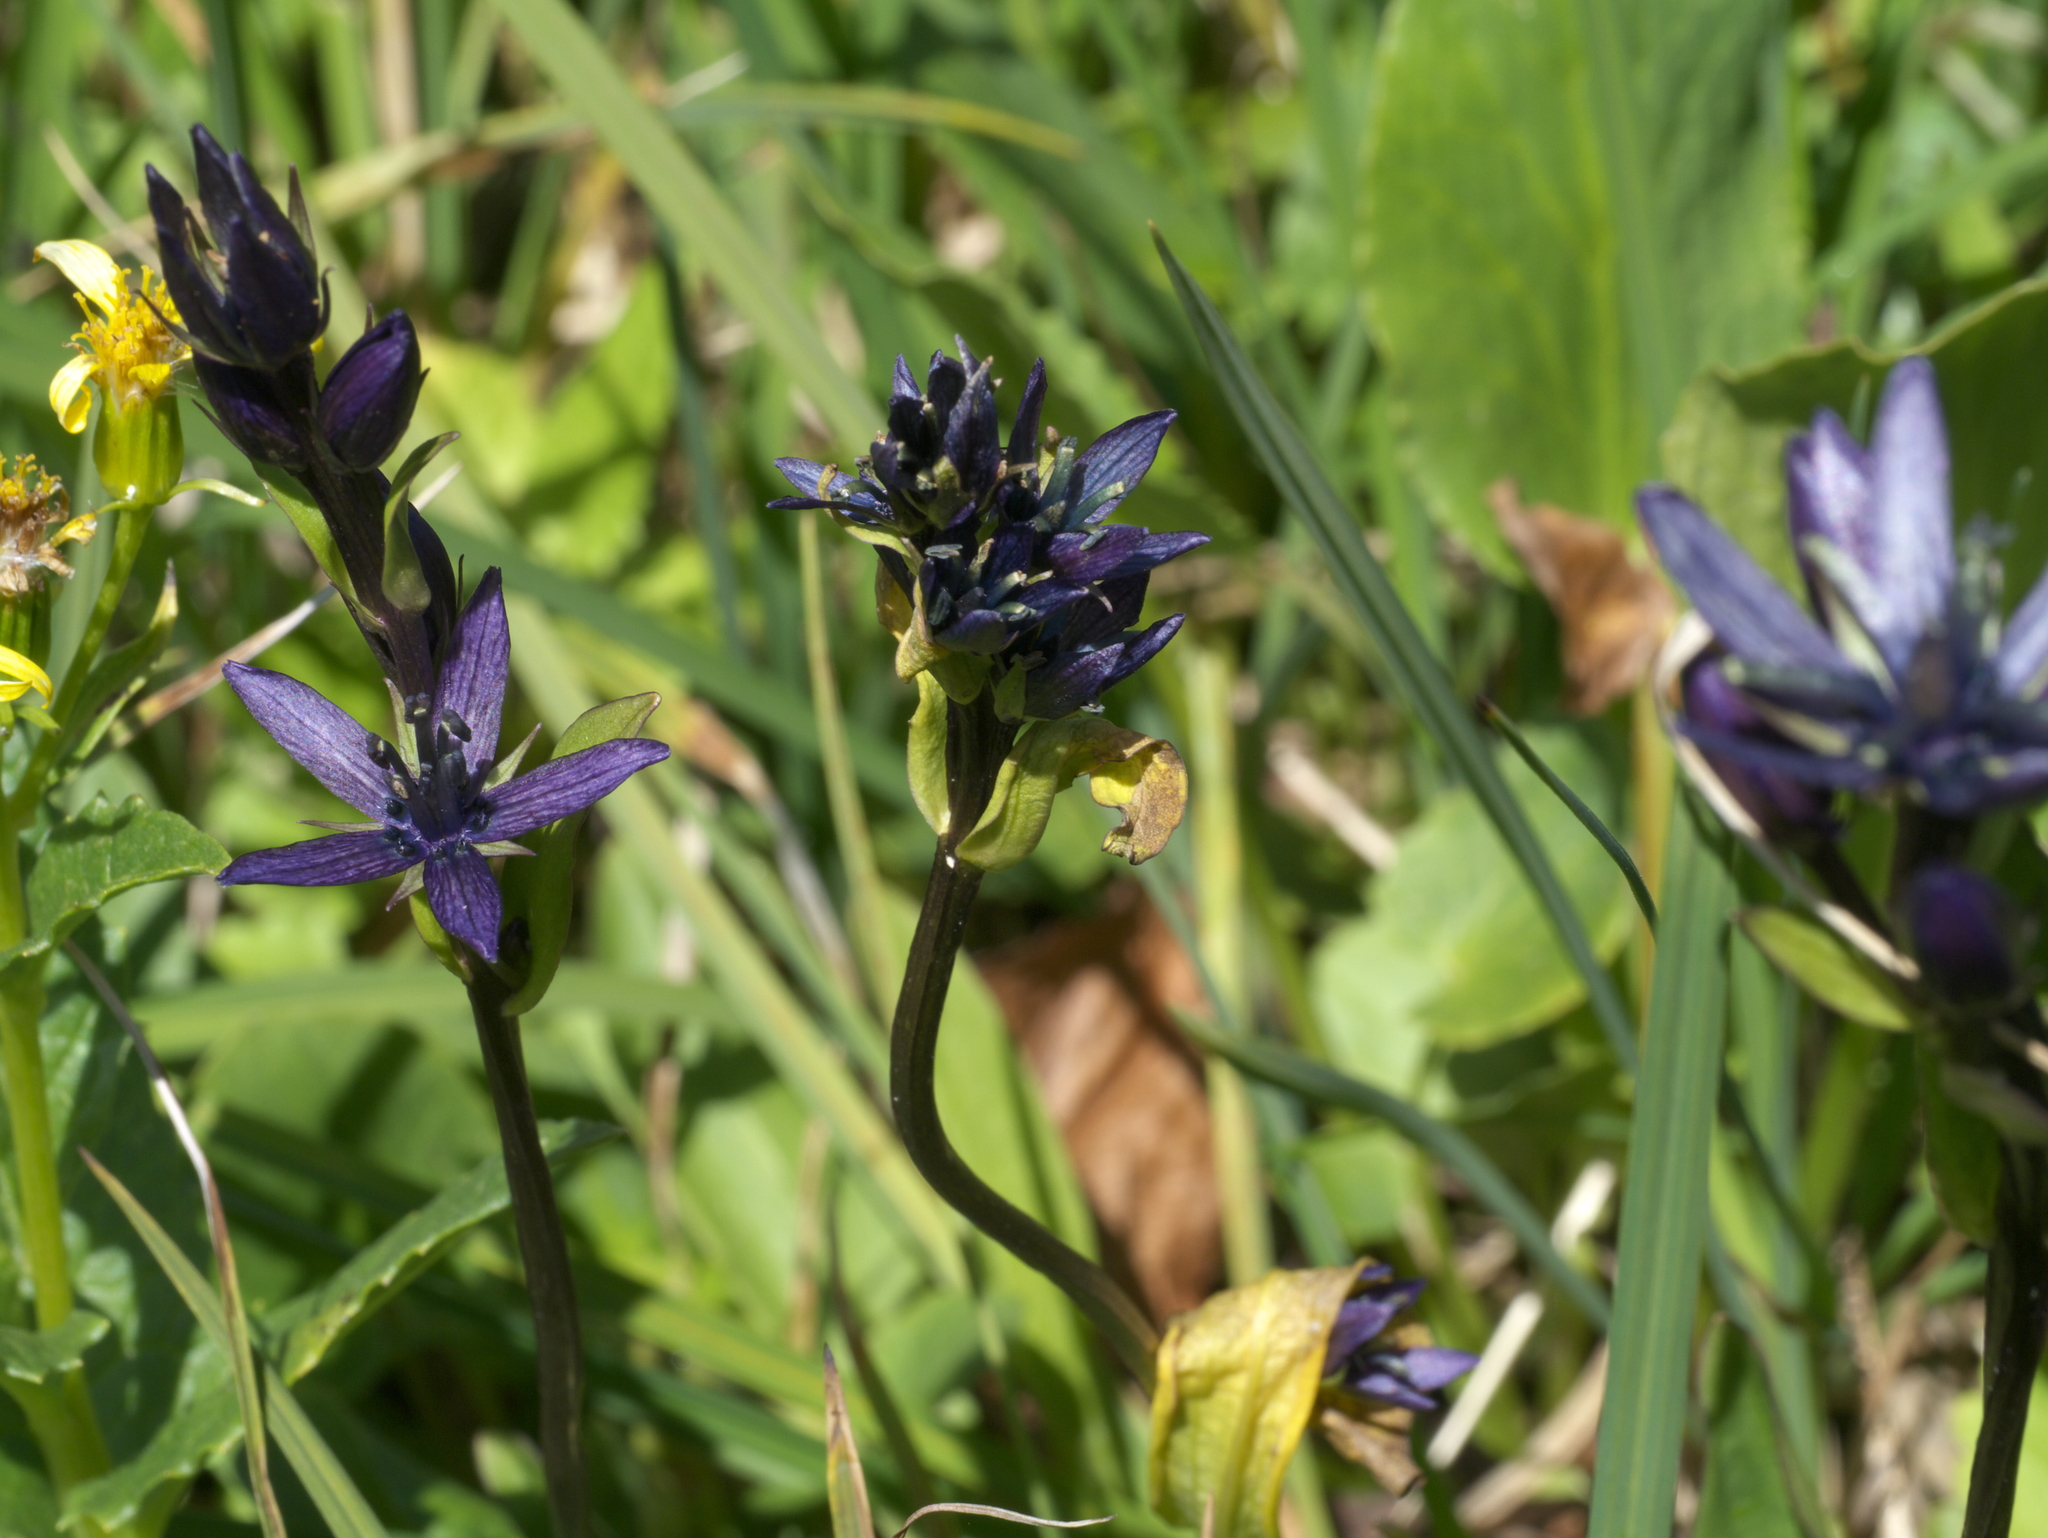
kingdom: Plantae
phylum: Tracheophyta
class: Magnoliopsida
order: Gentianales
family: Gentianaceae
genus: Swertia
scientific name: Swertia perennis
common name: Alpine bog swertia
